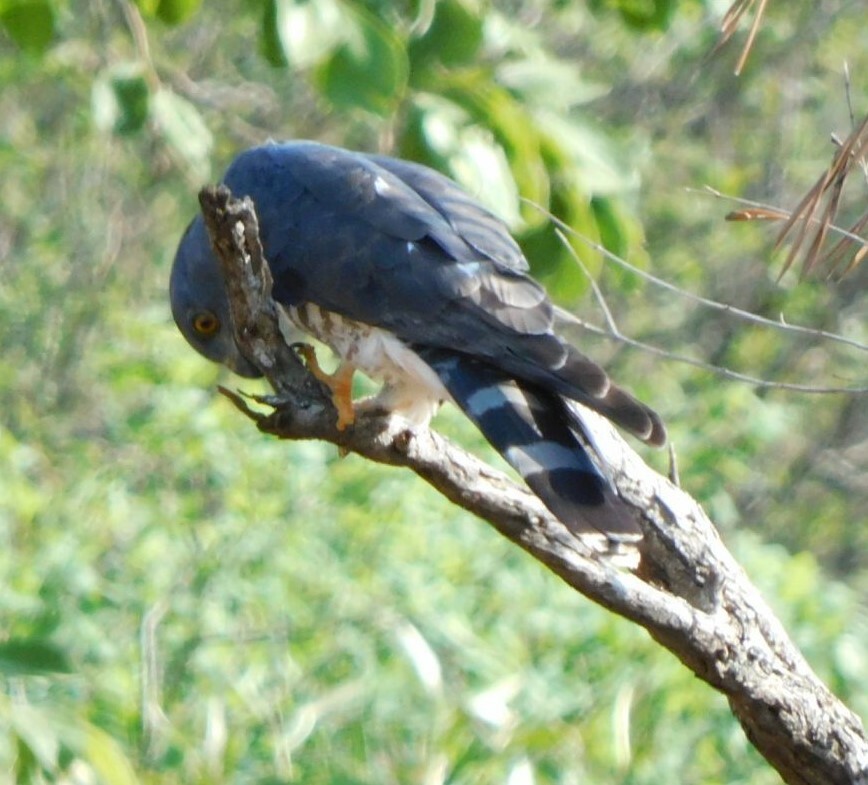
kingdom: Animalia
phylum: Chordata
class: Aves
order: Accipitriformes
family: Accipitridae
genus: Aviceda
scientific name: Aviceda cuculoides
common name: African cuckoo-hawk
